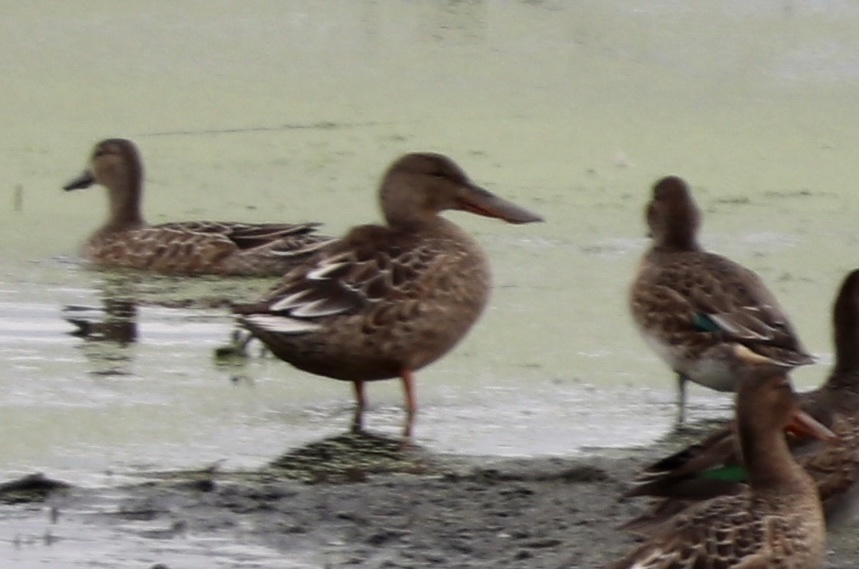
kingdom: Animalia
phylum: Chordata
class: Aves
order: Anseriformes
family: Anatidae
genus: Spatula
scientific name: Spatula clypeata
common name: Northern shoveler
